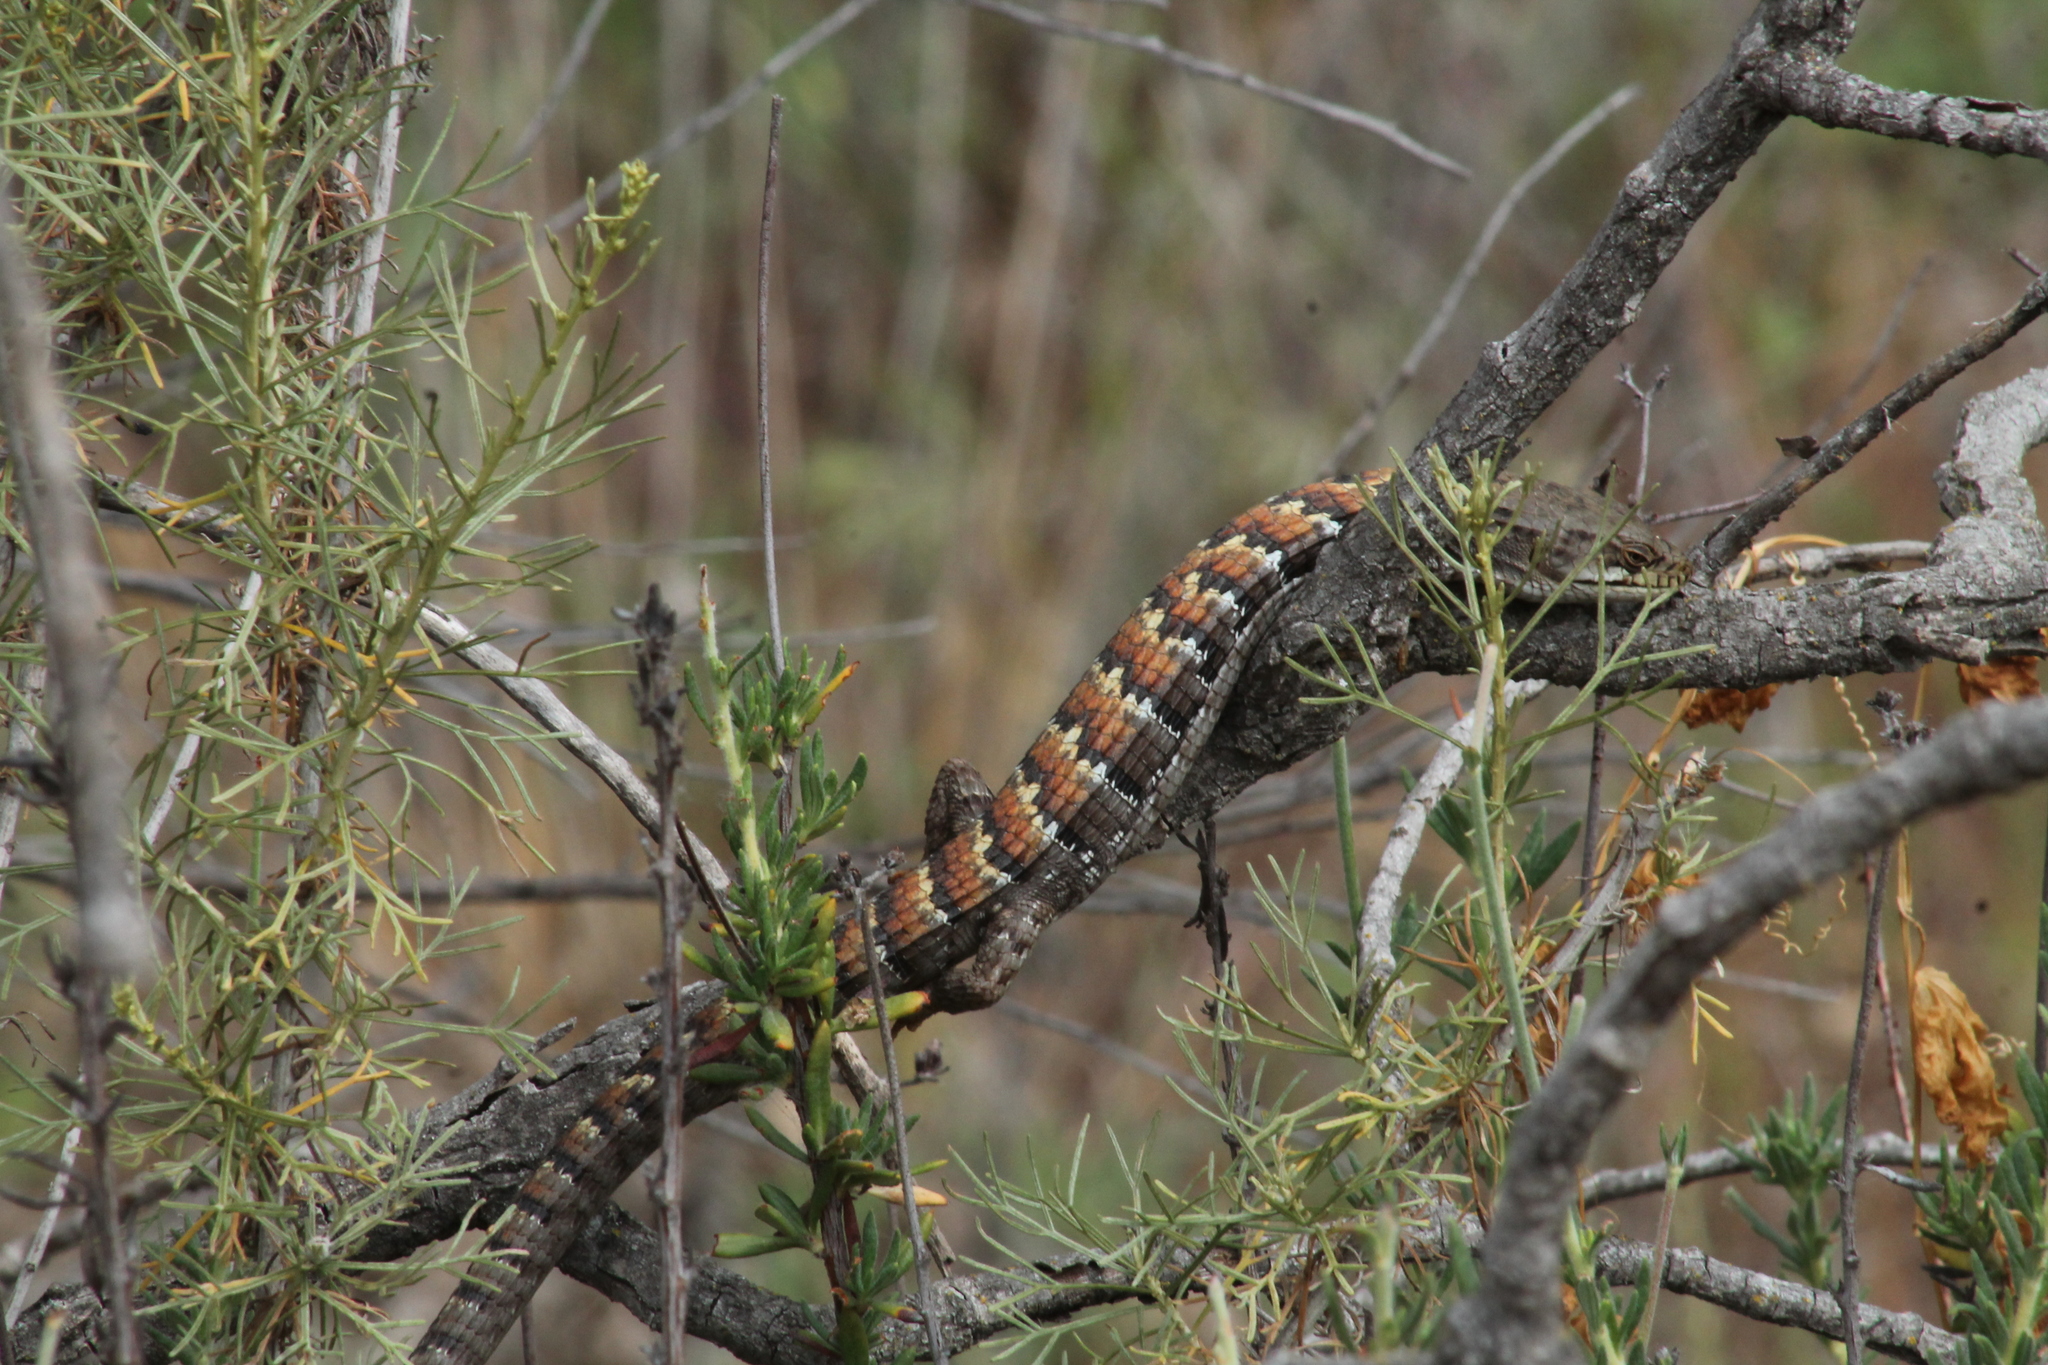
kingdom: Animalia
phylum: Chordata
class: Squamata
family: Anguidae
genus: Elgaria
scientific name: Elgaria multicarinata
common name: Southern alligator lizard
